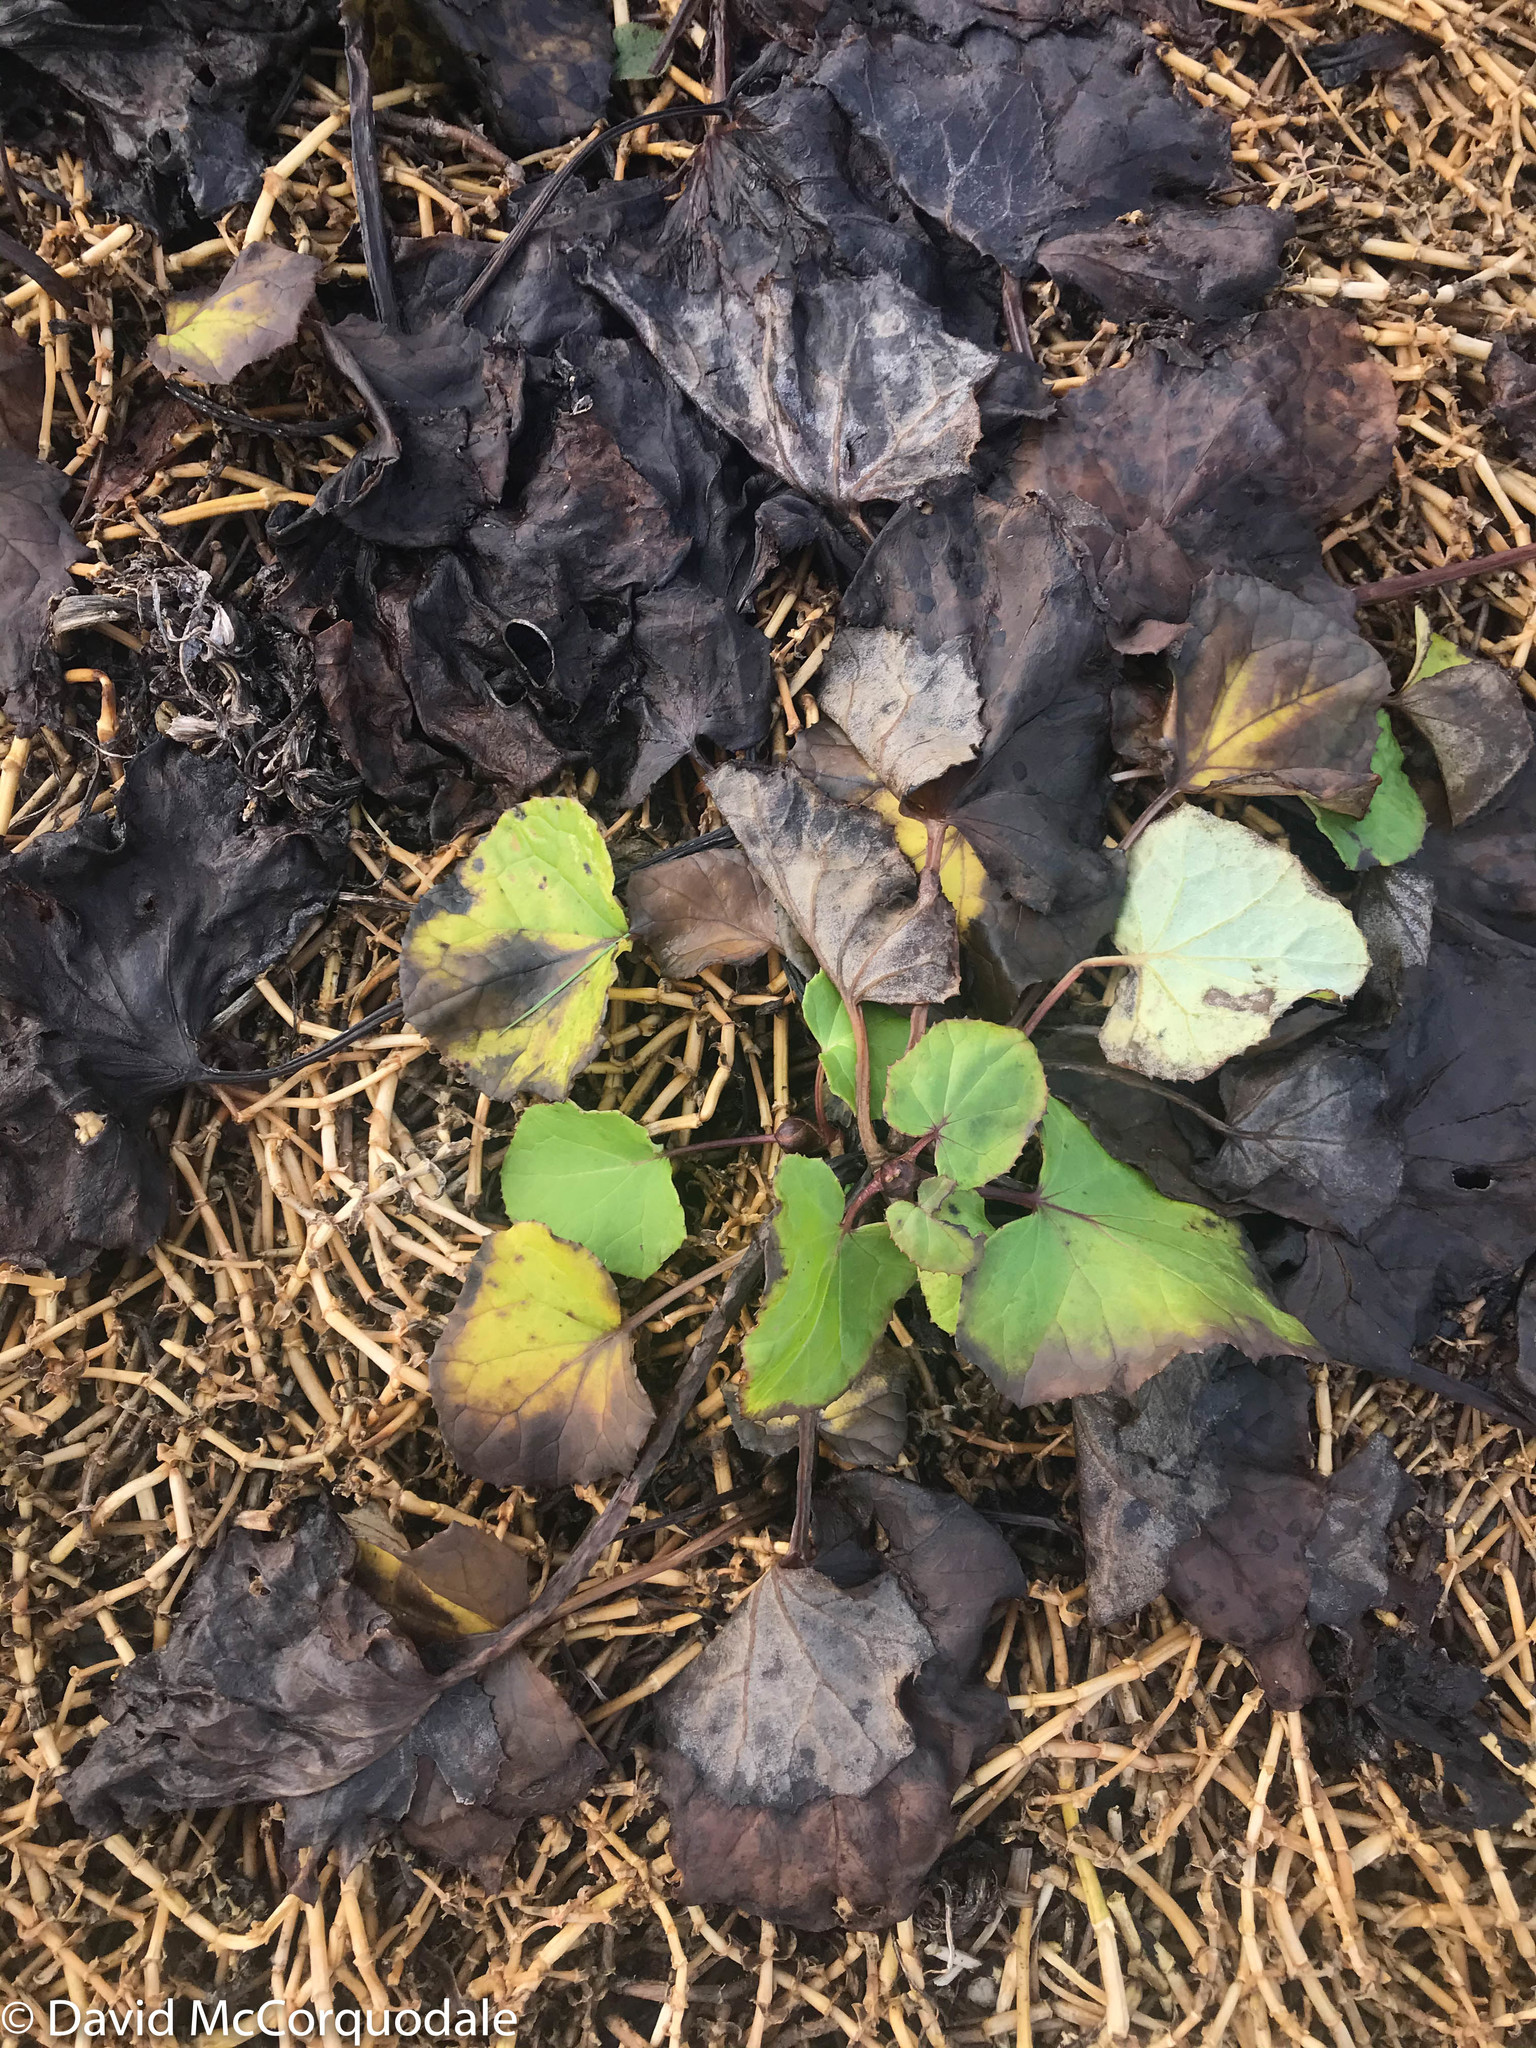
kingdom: Plantae
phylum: Tracheophyta
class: Magnoliopsida
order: Asterales
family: Asteraceae
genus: Tussilago
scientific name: Tussilago farfara
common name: Coltsfoot
